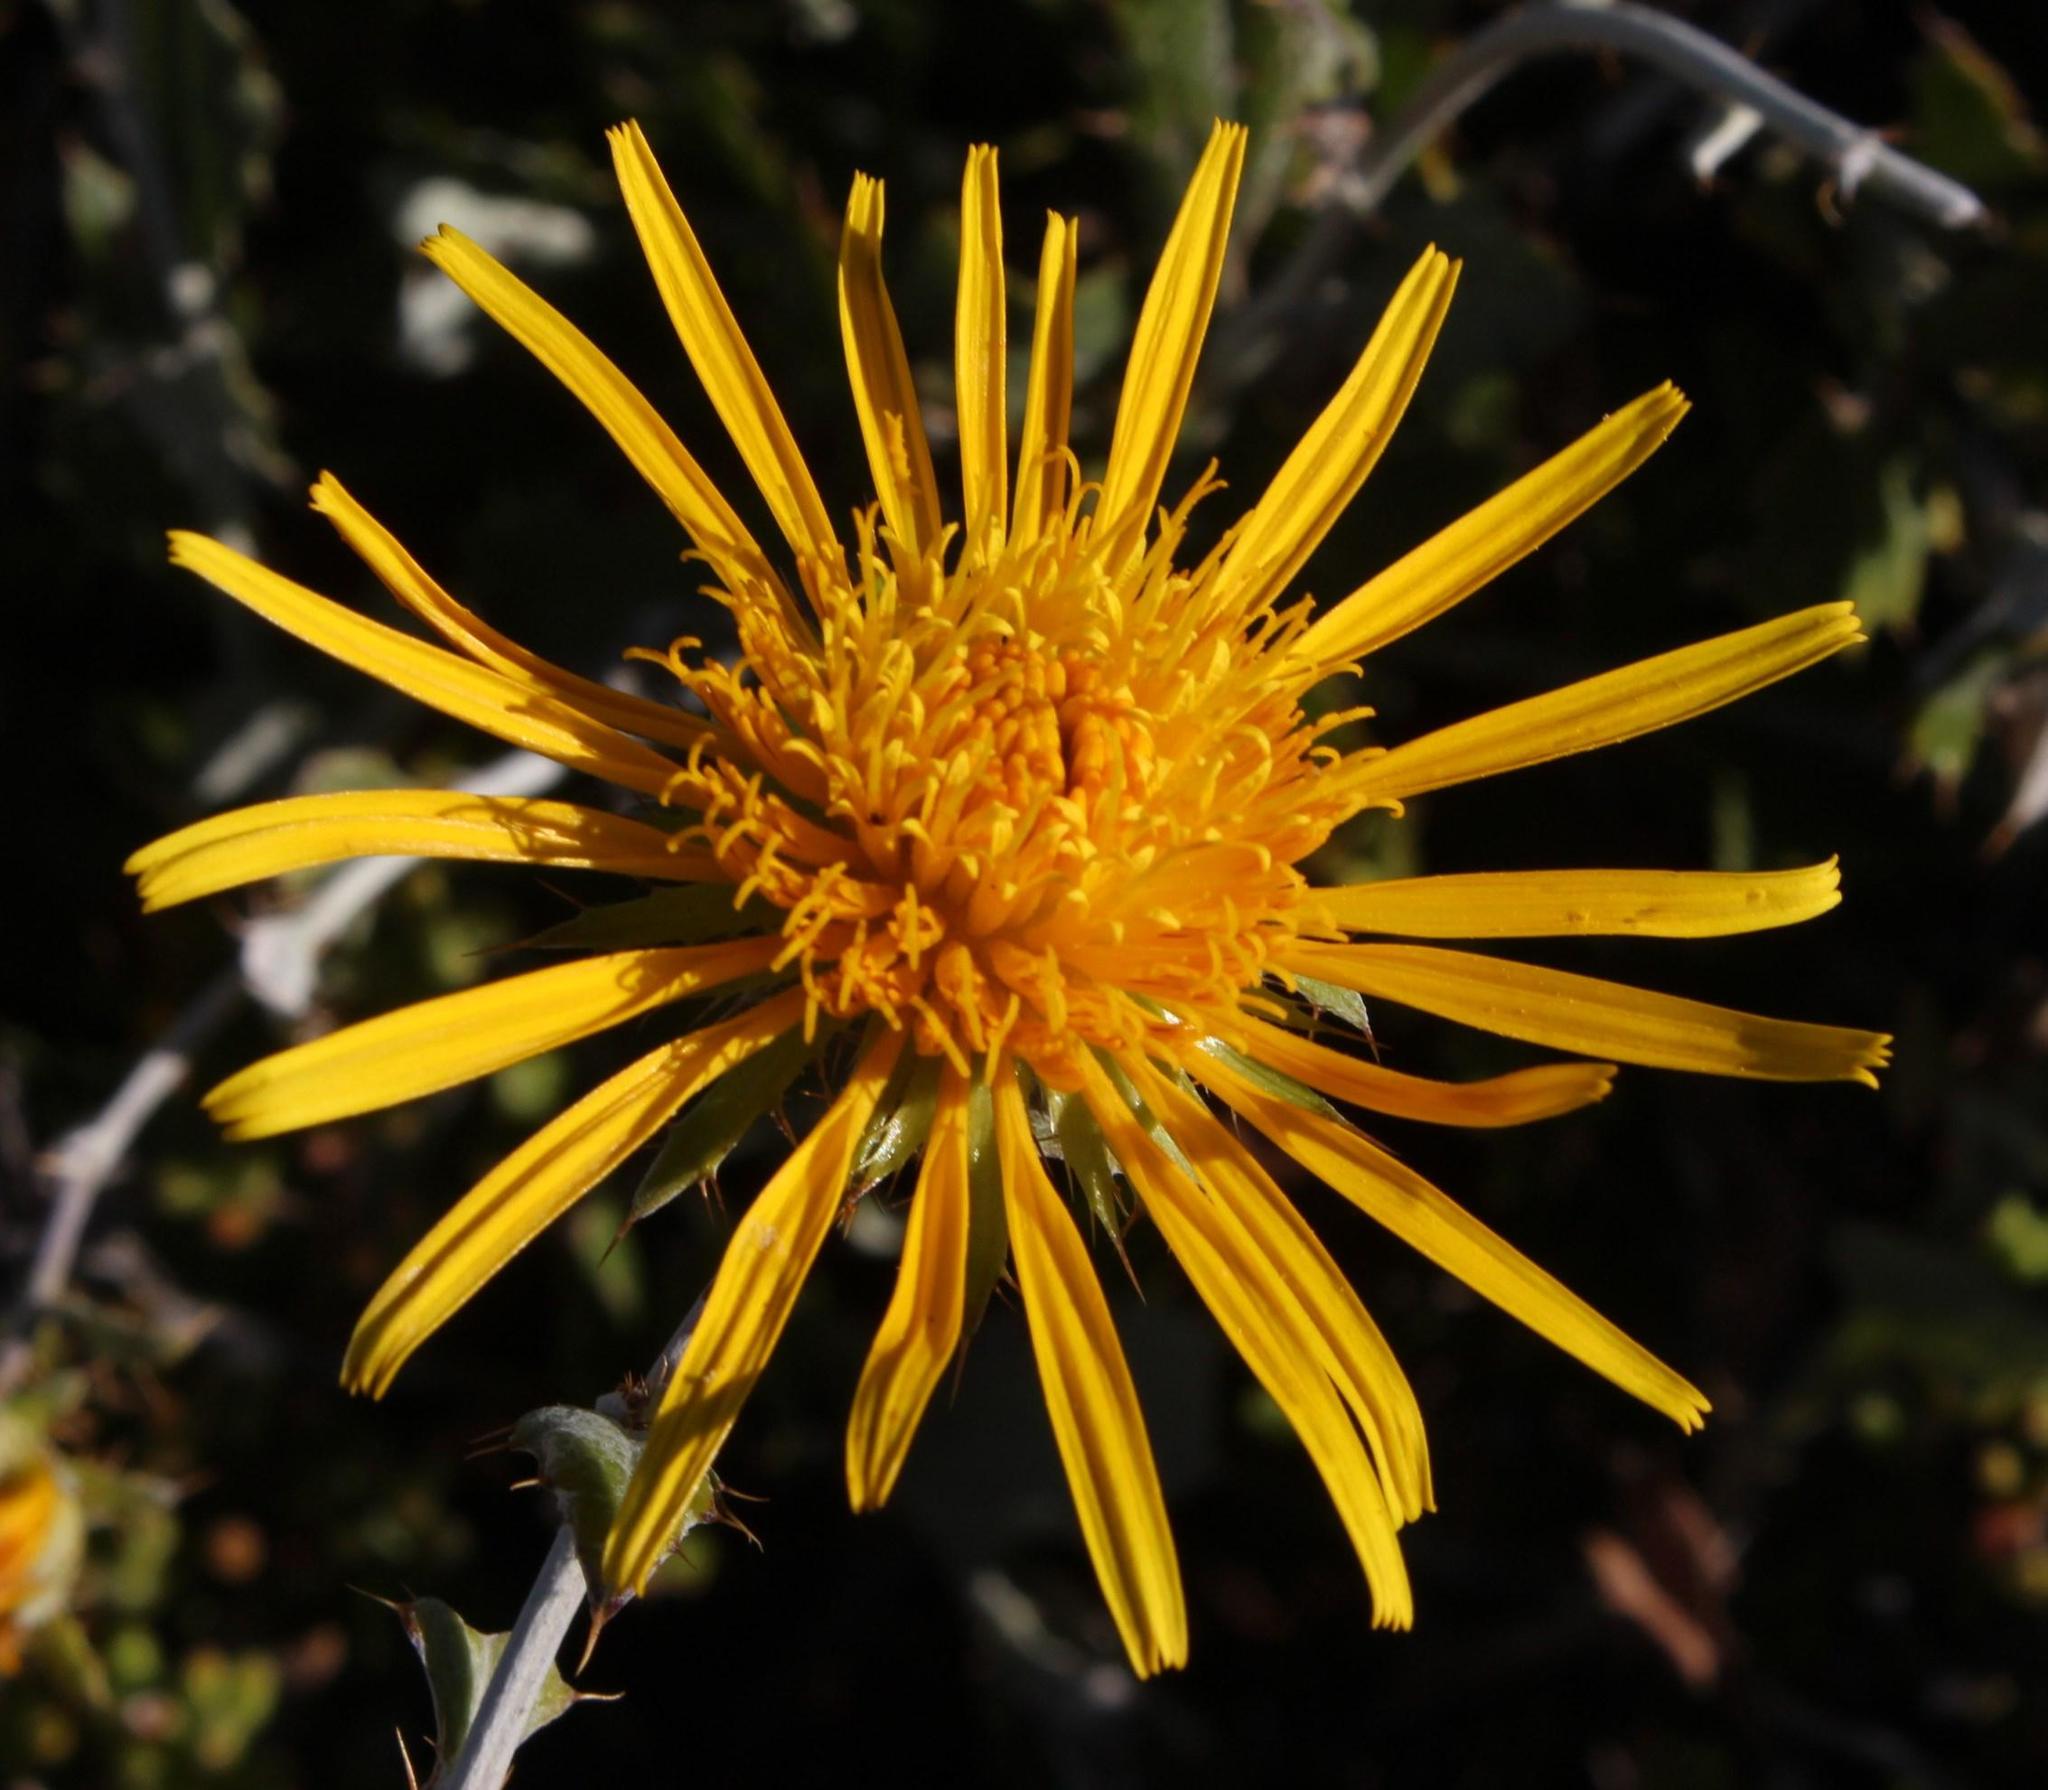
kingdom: Plantae
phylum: Tracheophyta
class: Magnoliopsida
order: Asterales
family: Asteraceae
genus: Berkheya
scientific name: Berkheya fruticosa
